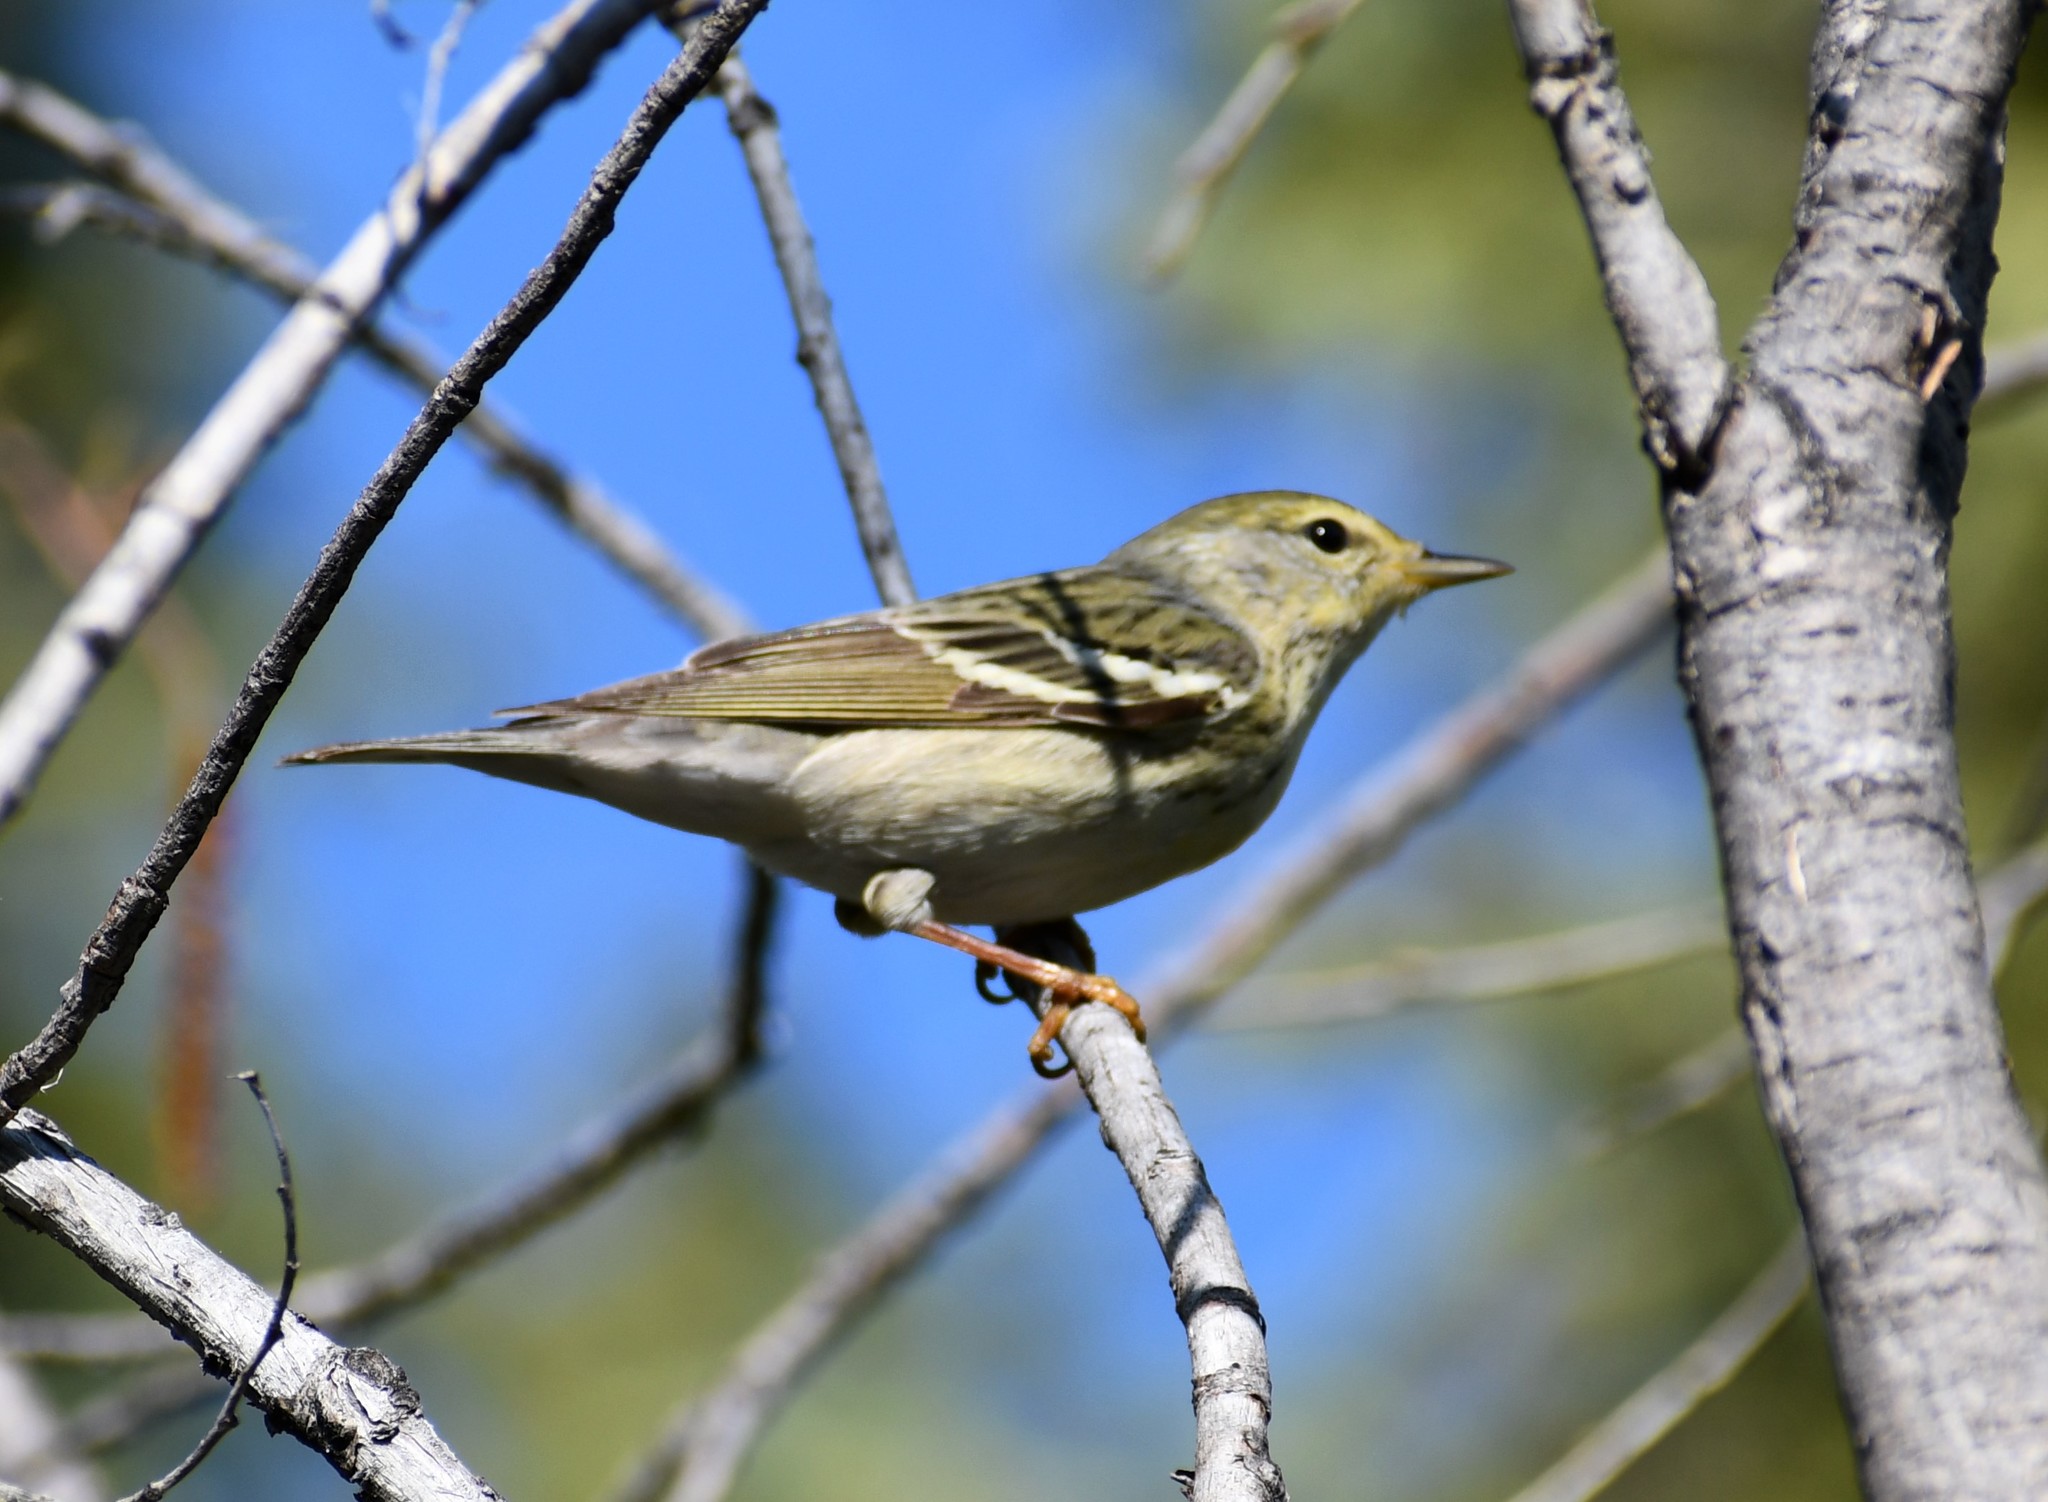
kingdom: Animalia
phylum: Chordata
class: Aves
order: Passeriformes
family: Parulidae
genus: Setophaga
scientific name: Setophaga striata
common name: Blackpoll warbler
